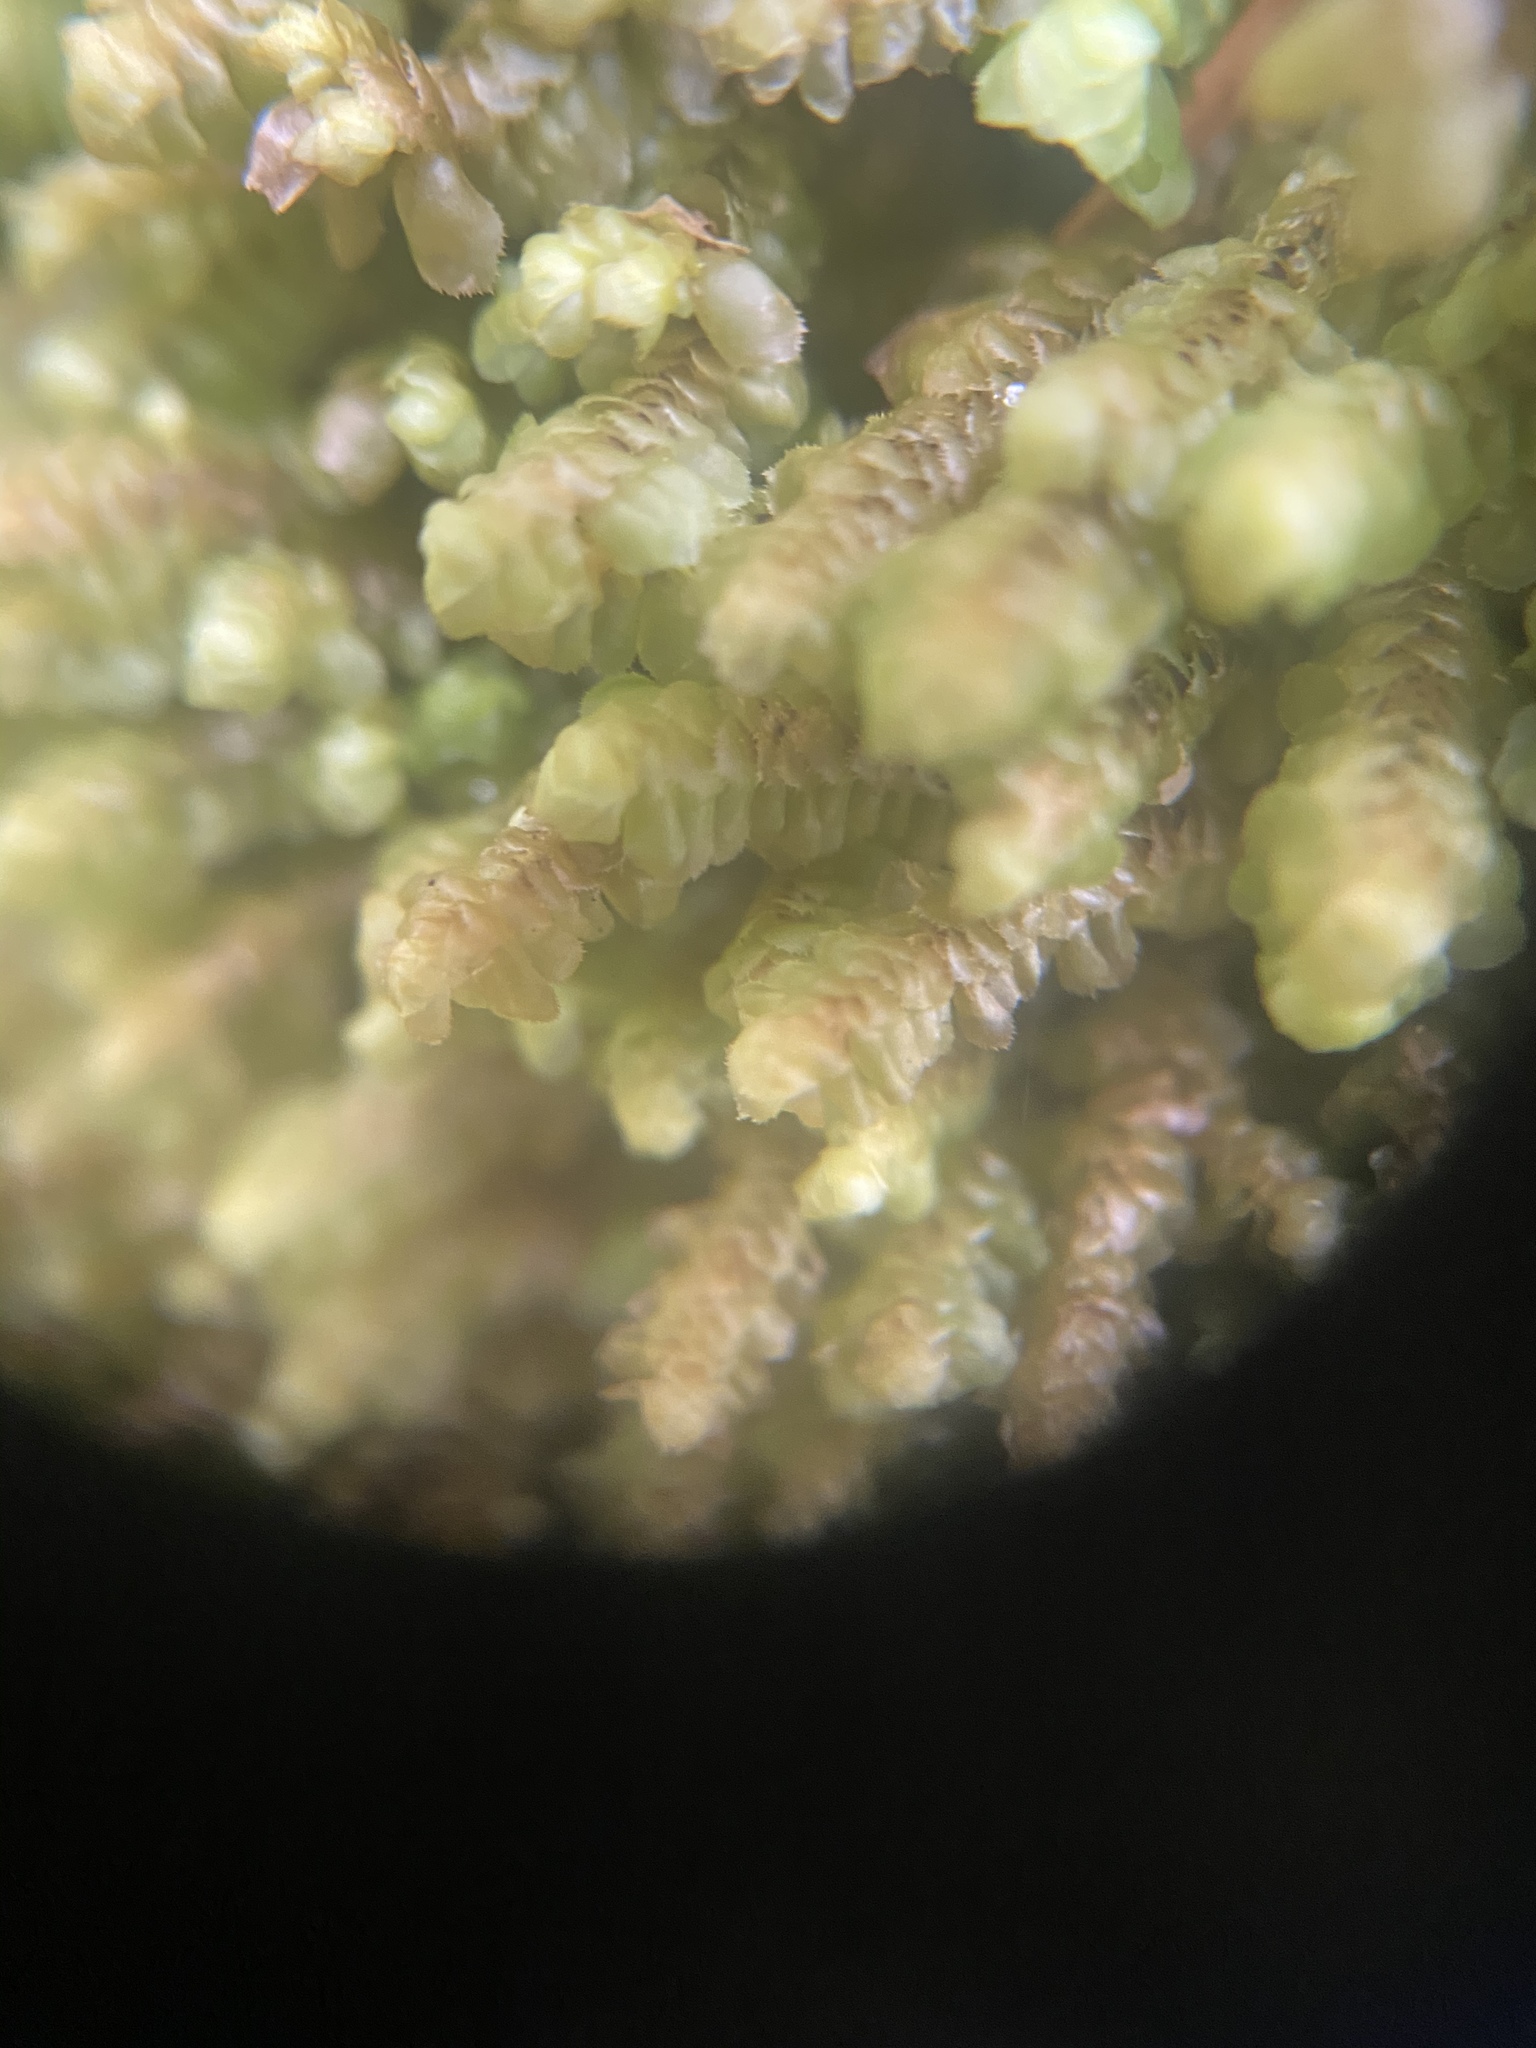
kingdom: Plantae
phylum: Marchantiophyta
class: Jungermanniopsida
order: Jungermanniales
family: Scapaniaceae
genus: Scapania
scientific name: Scapania bolanderi
